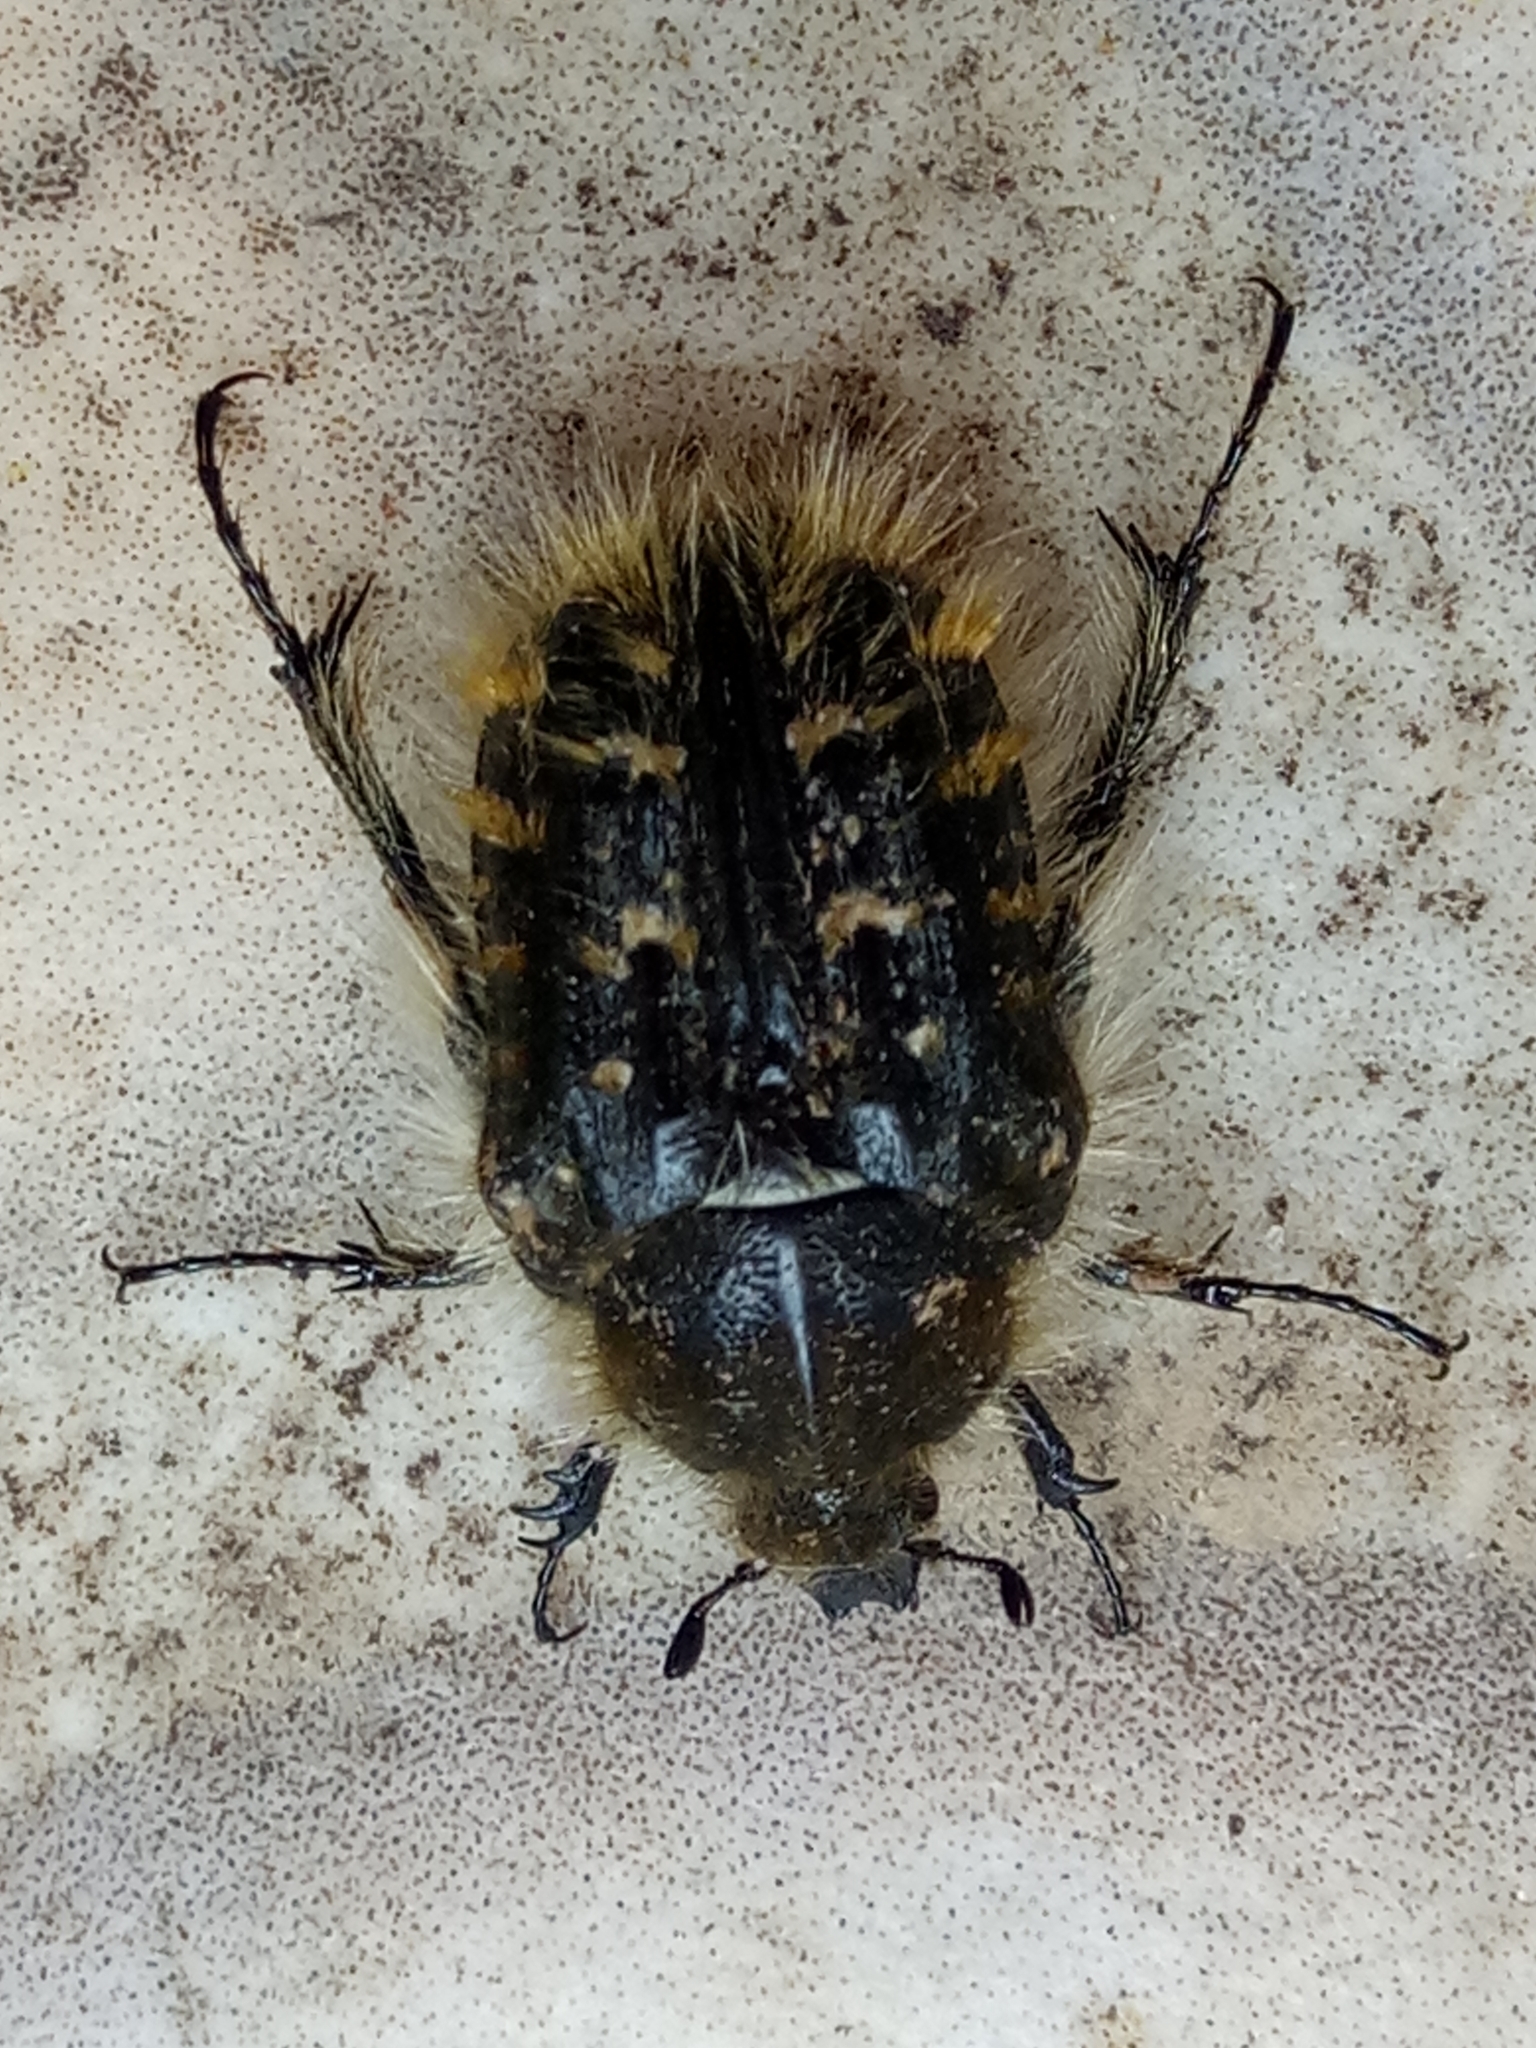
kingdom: Animalia
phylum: Arthropoda
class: Insecta
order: Coleoptera
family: Scarabaeidae
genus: Tropinota
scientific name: Tropinota squalida
